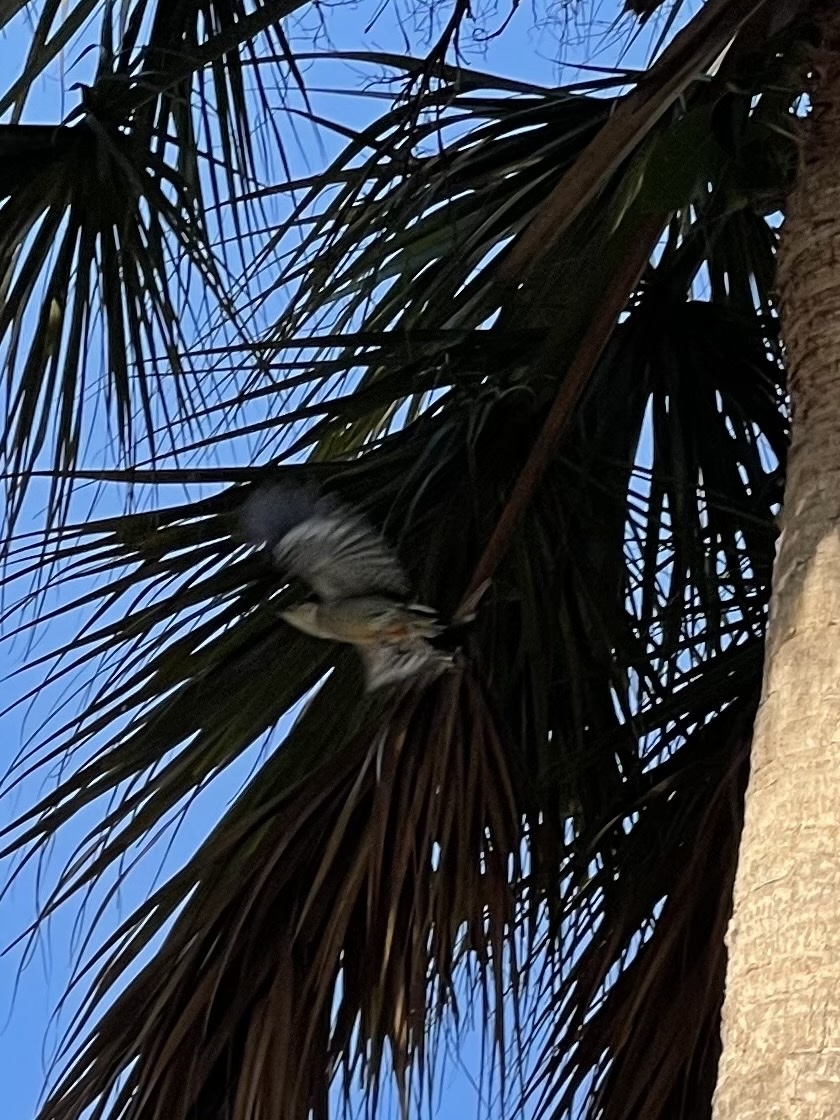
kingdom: Animalia
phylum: Chordata
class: Aves
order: Piciformes
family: Picidae
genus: Melanerpes
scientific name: Melanerpes carolinus
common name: Red-bellied woodpecker
